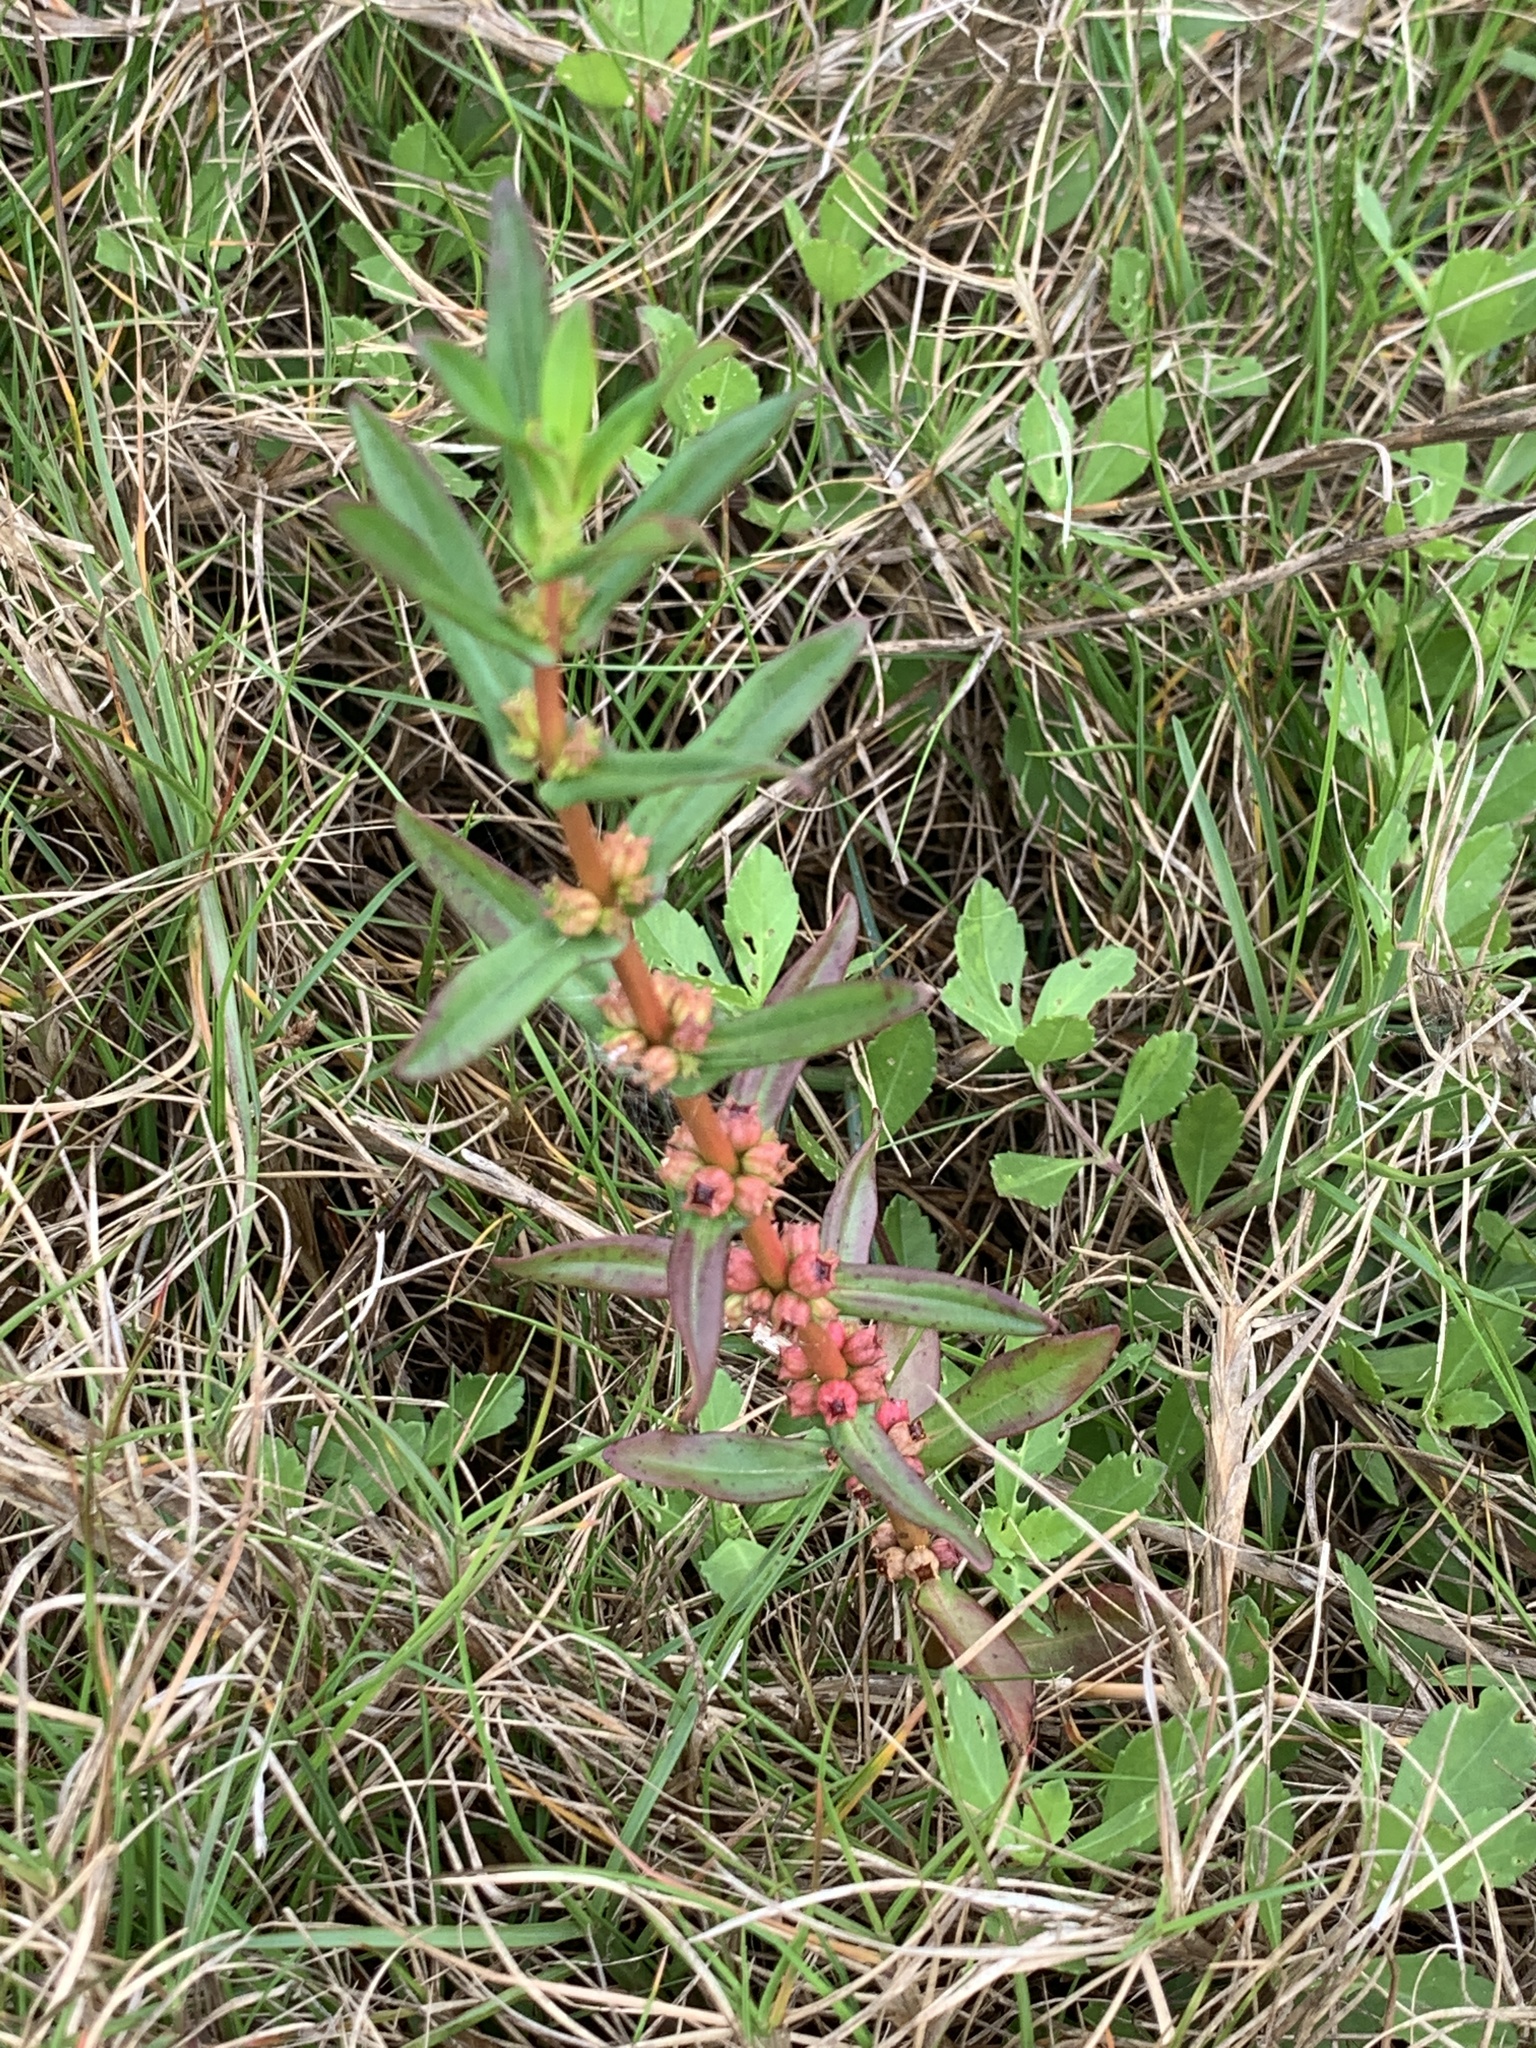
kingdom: Plantae
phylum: Tracheophyta
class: Magnoliopsida
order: Myrtales
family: Lythraceae
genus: Ammannia
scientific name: Ammannia coccinea
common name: Valley redstem
